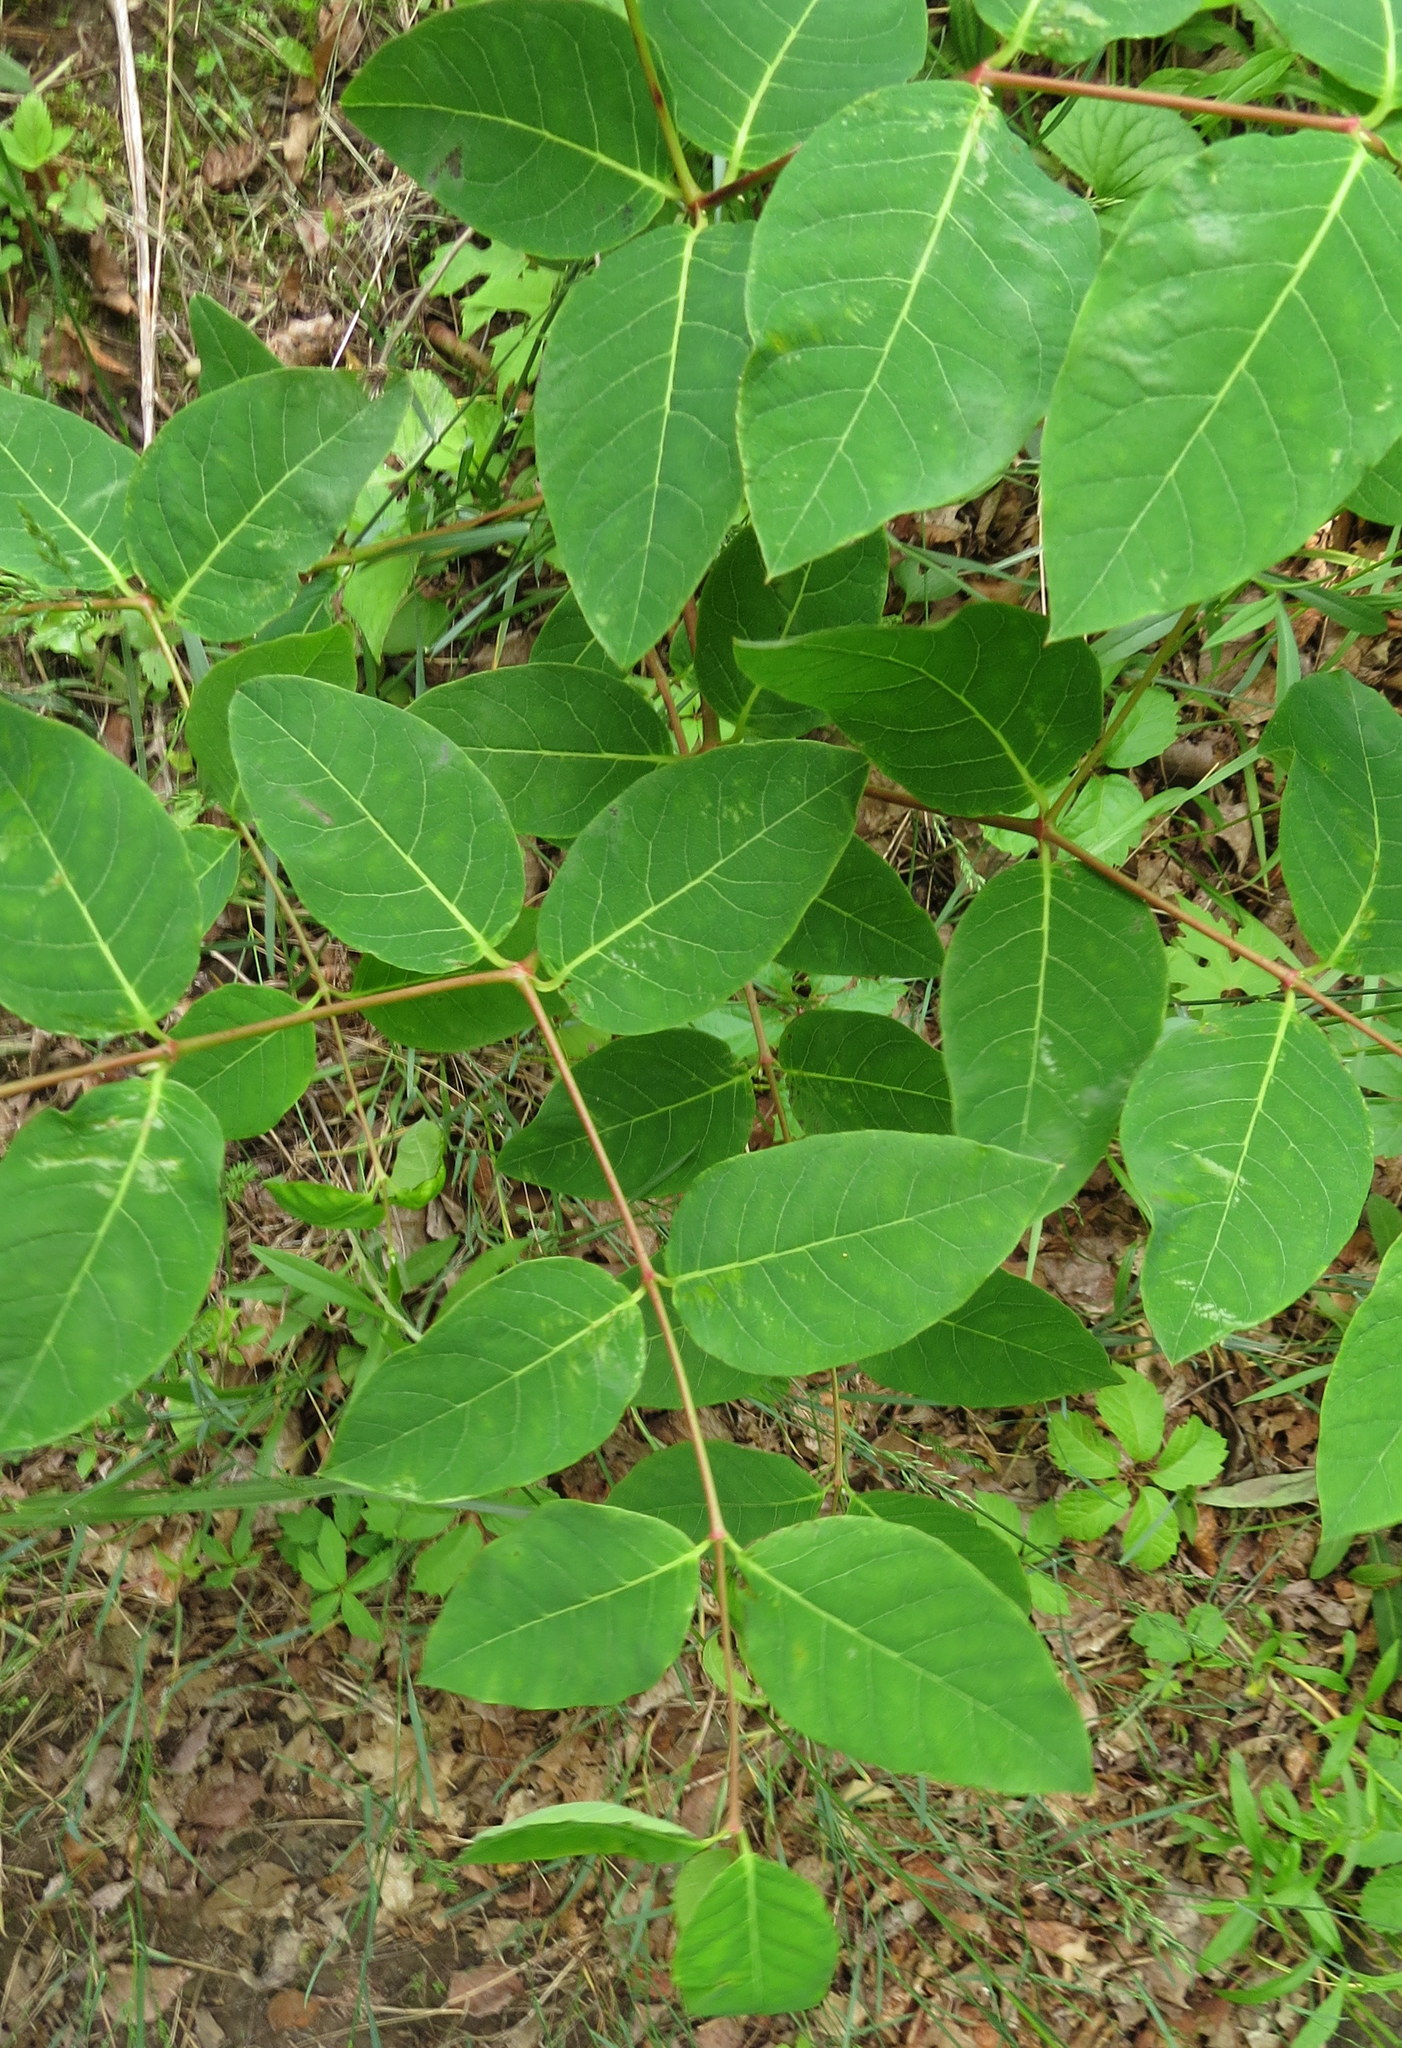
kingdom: Plantae
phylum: Tracheophyta
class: Magnoliopsida
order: Gentianales
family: Apocynaceae
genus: Apocynum
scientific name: Apocynum androsaemifolium
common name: Spreading dogbane
